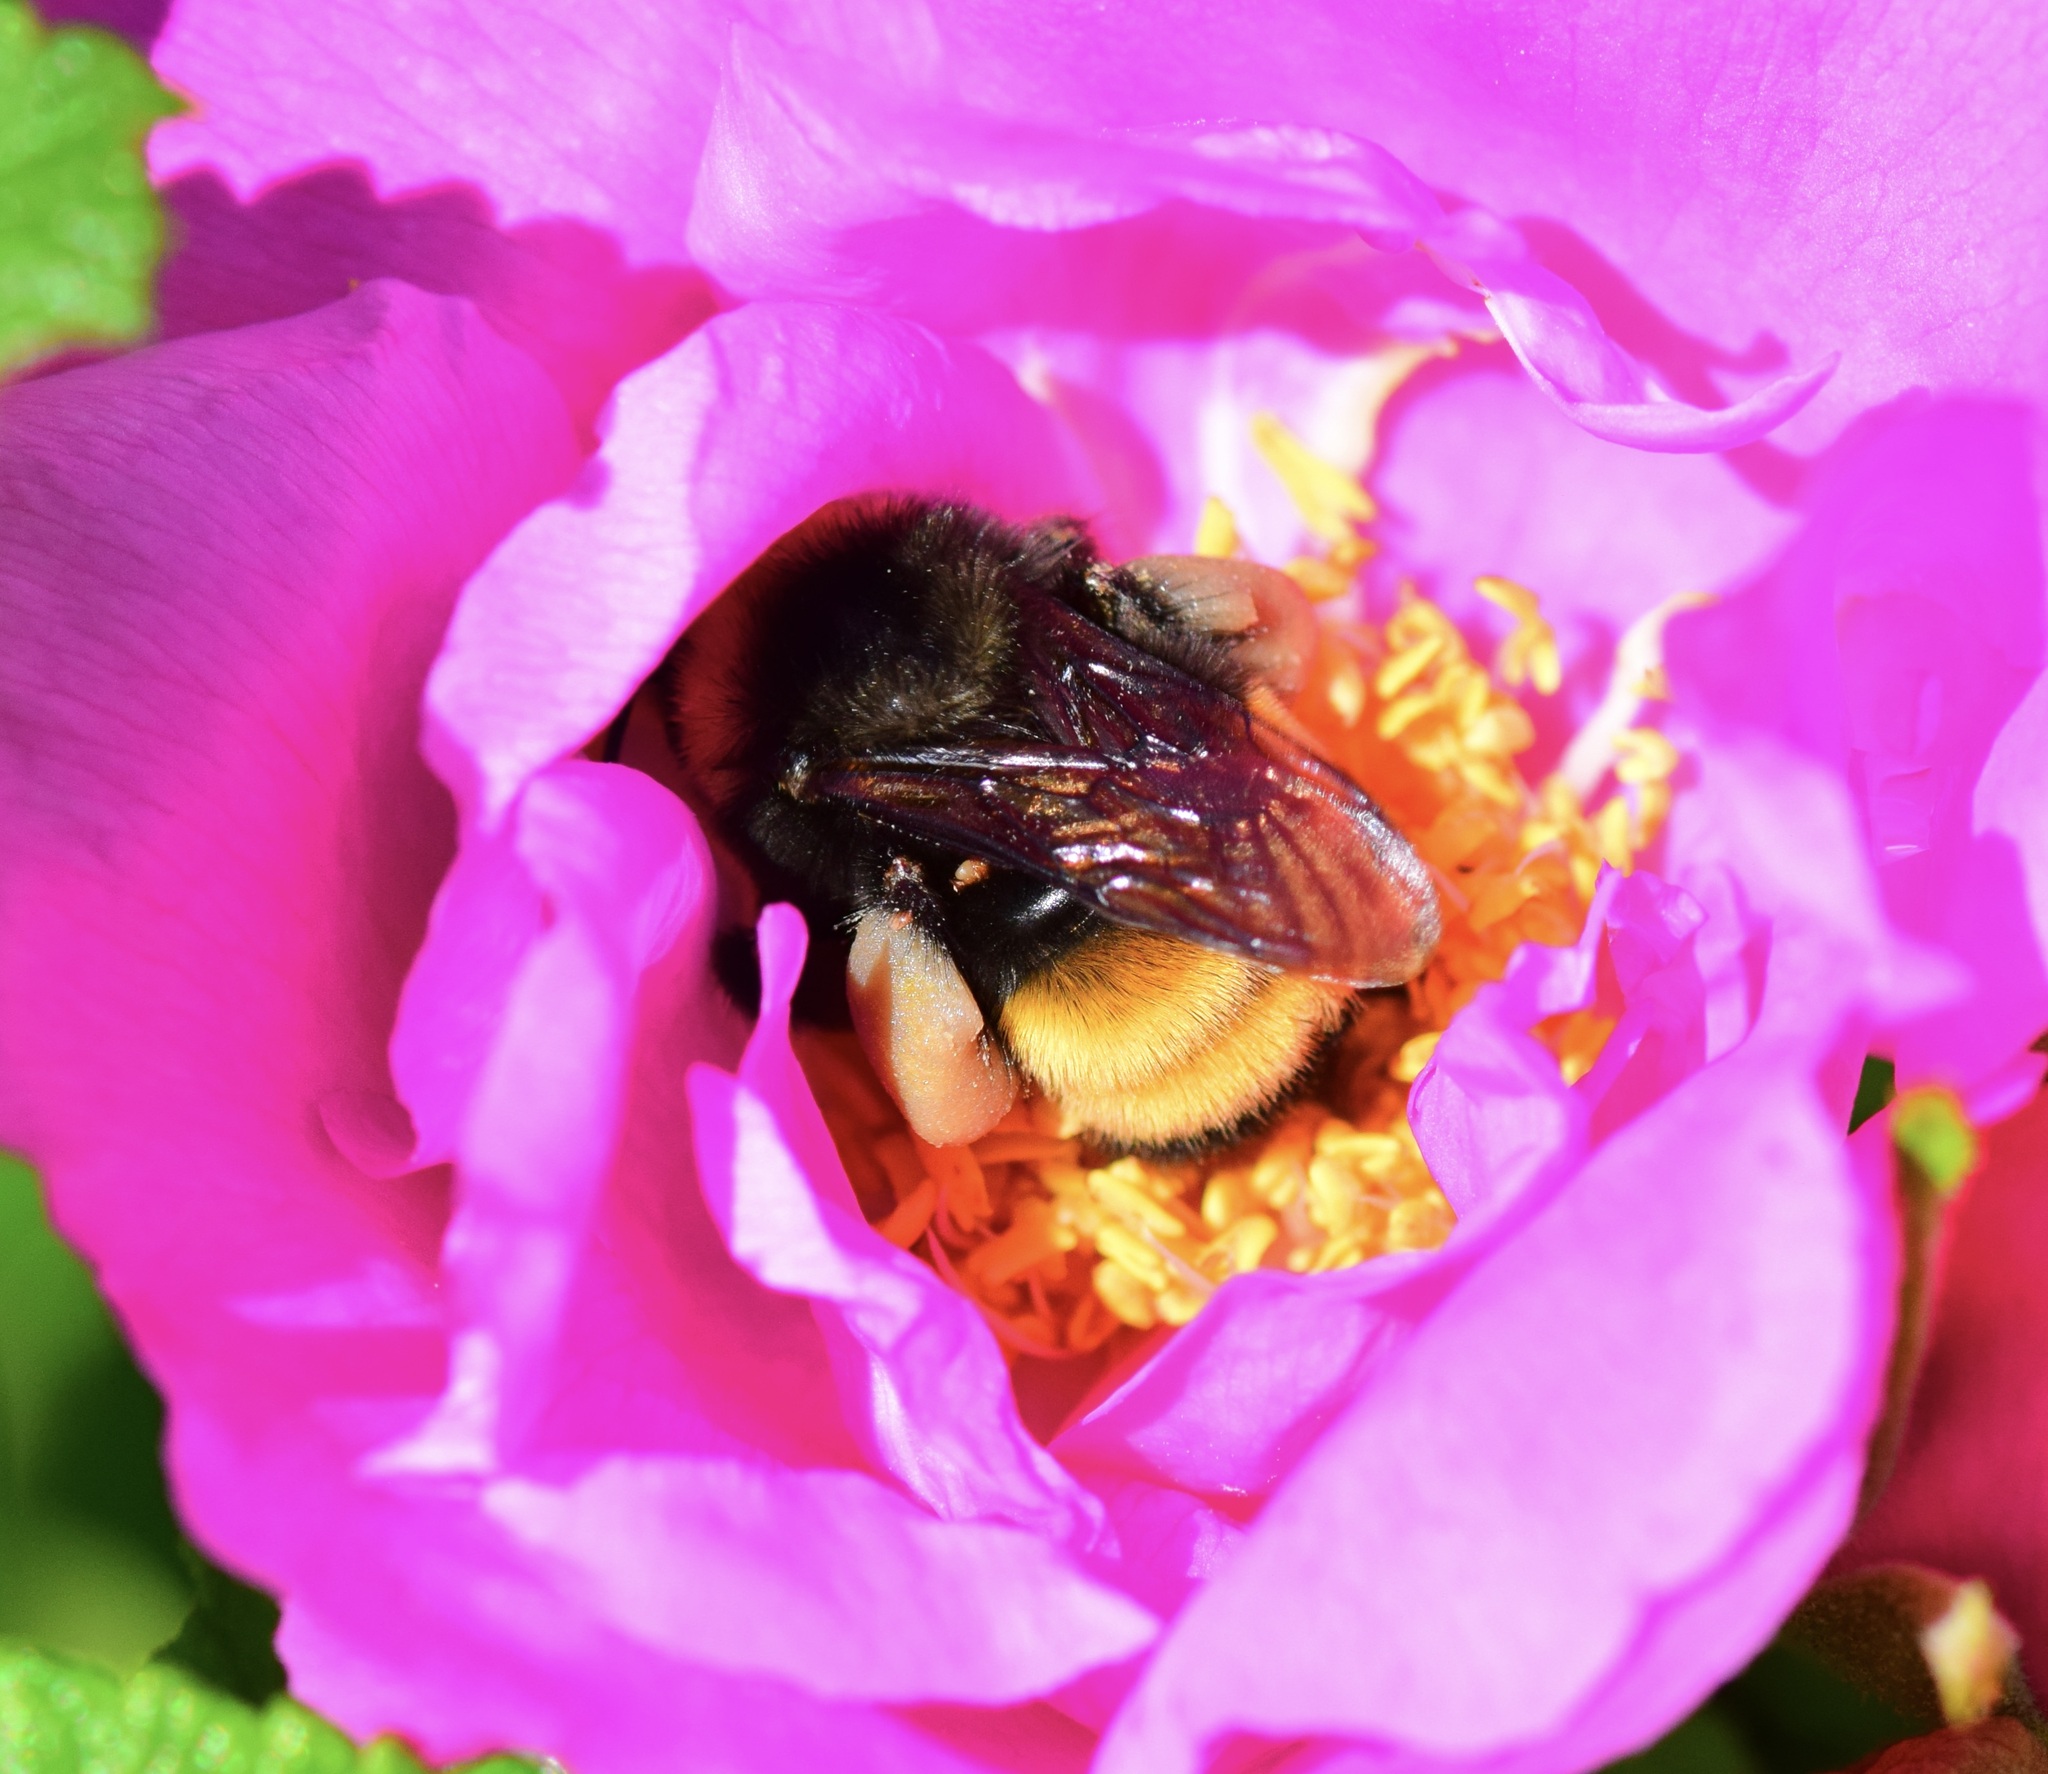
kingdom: Animalia
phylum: Arthropoda
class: Insecta
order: Hymenoptera
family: Apidae
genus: Bombus
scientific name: Bombus terricola
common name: Yellow-banded bumble bee
